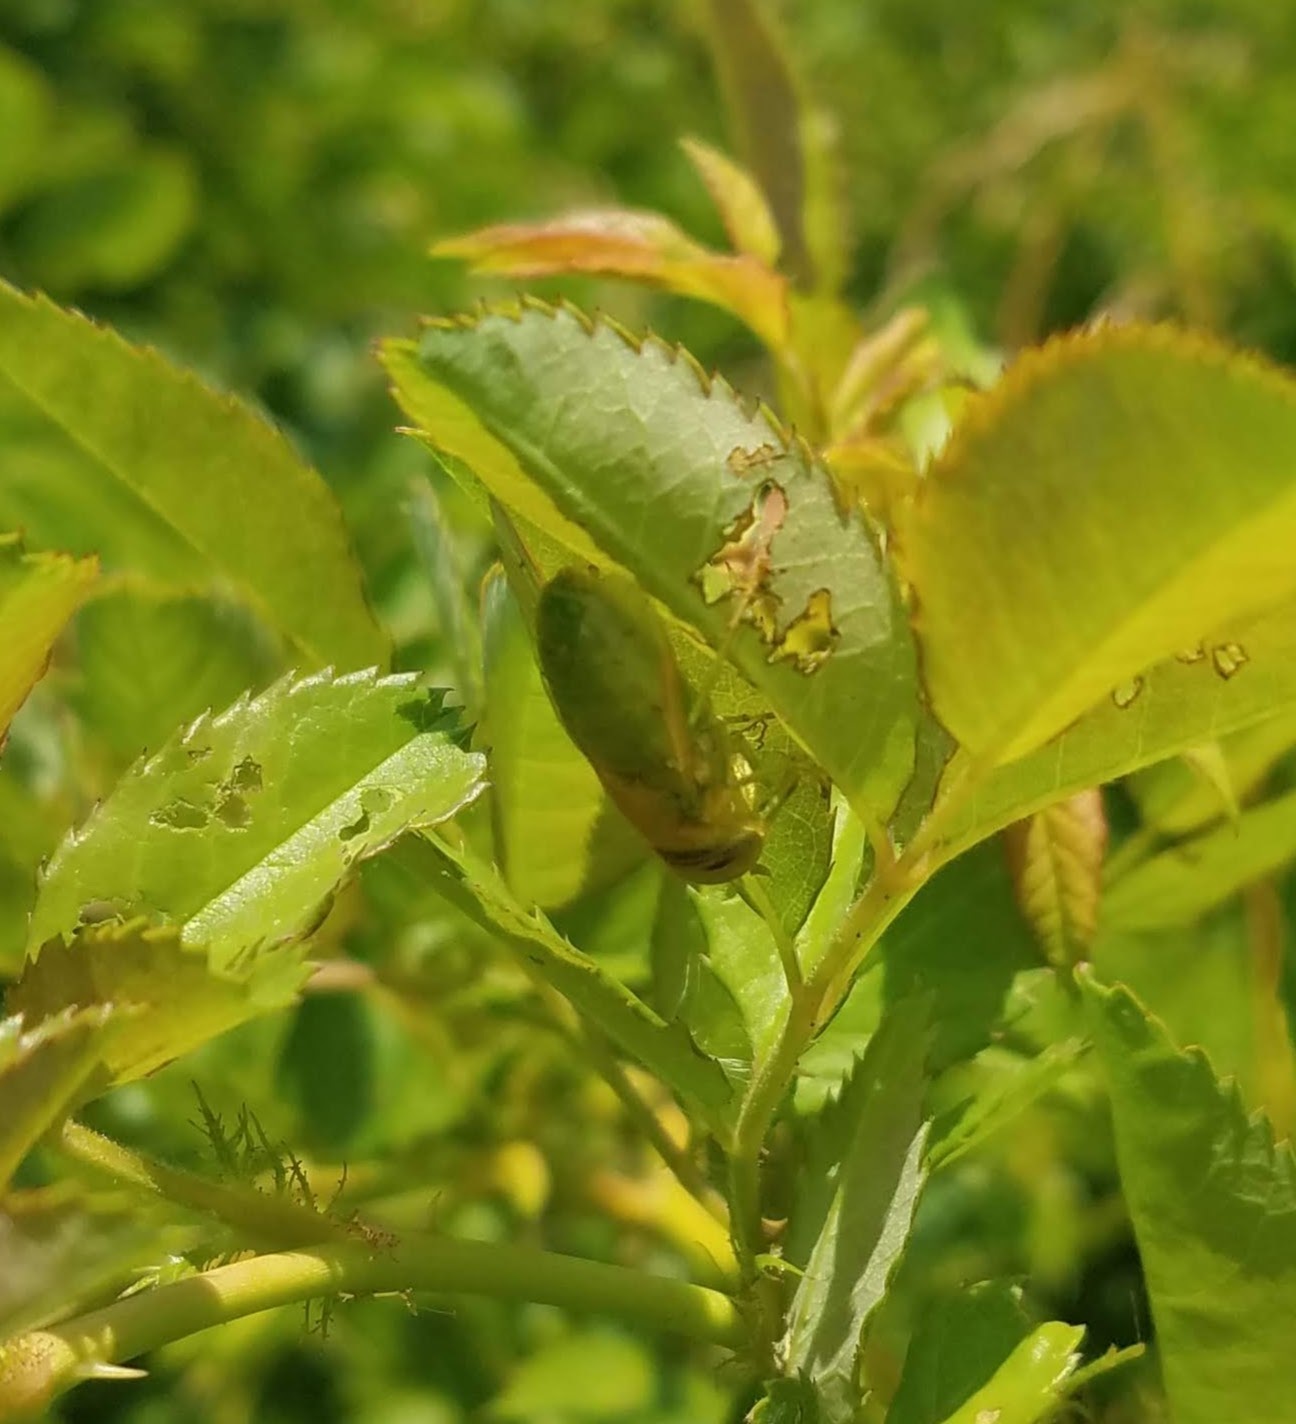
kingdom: Animalia
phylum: Arthropoda
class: Insecta
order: Diptera
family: Tabanidae
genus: Chlorotabanus
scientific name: Chlorotabanus crepuscularis
